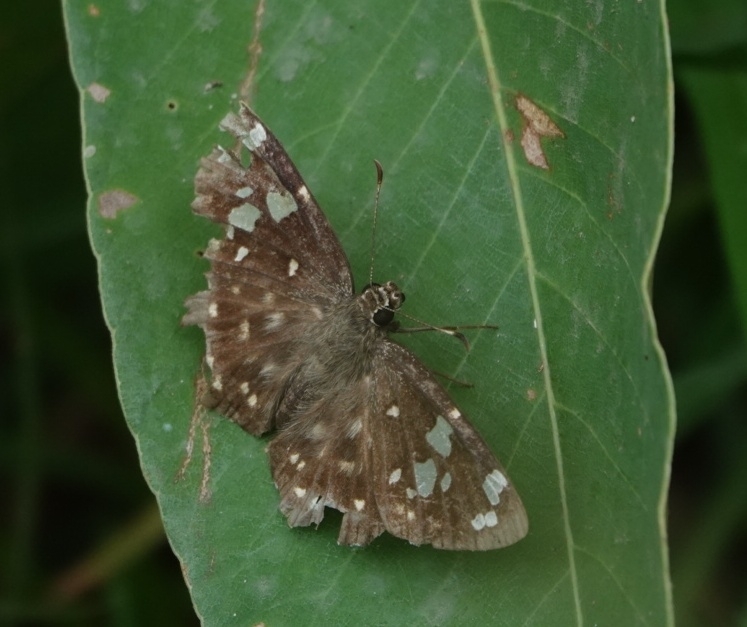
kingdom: Animalia
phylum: Arthropoda
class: Insecta
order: Lepidoptera
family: Hesperiidae
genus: Celaenorrhinus
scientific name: Celaenorrhinus ambareesa
